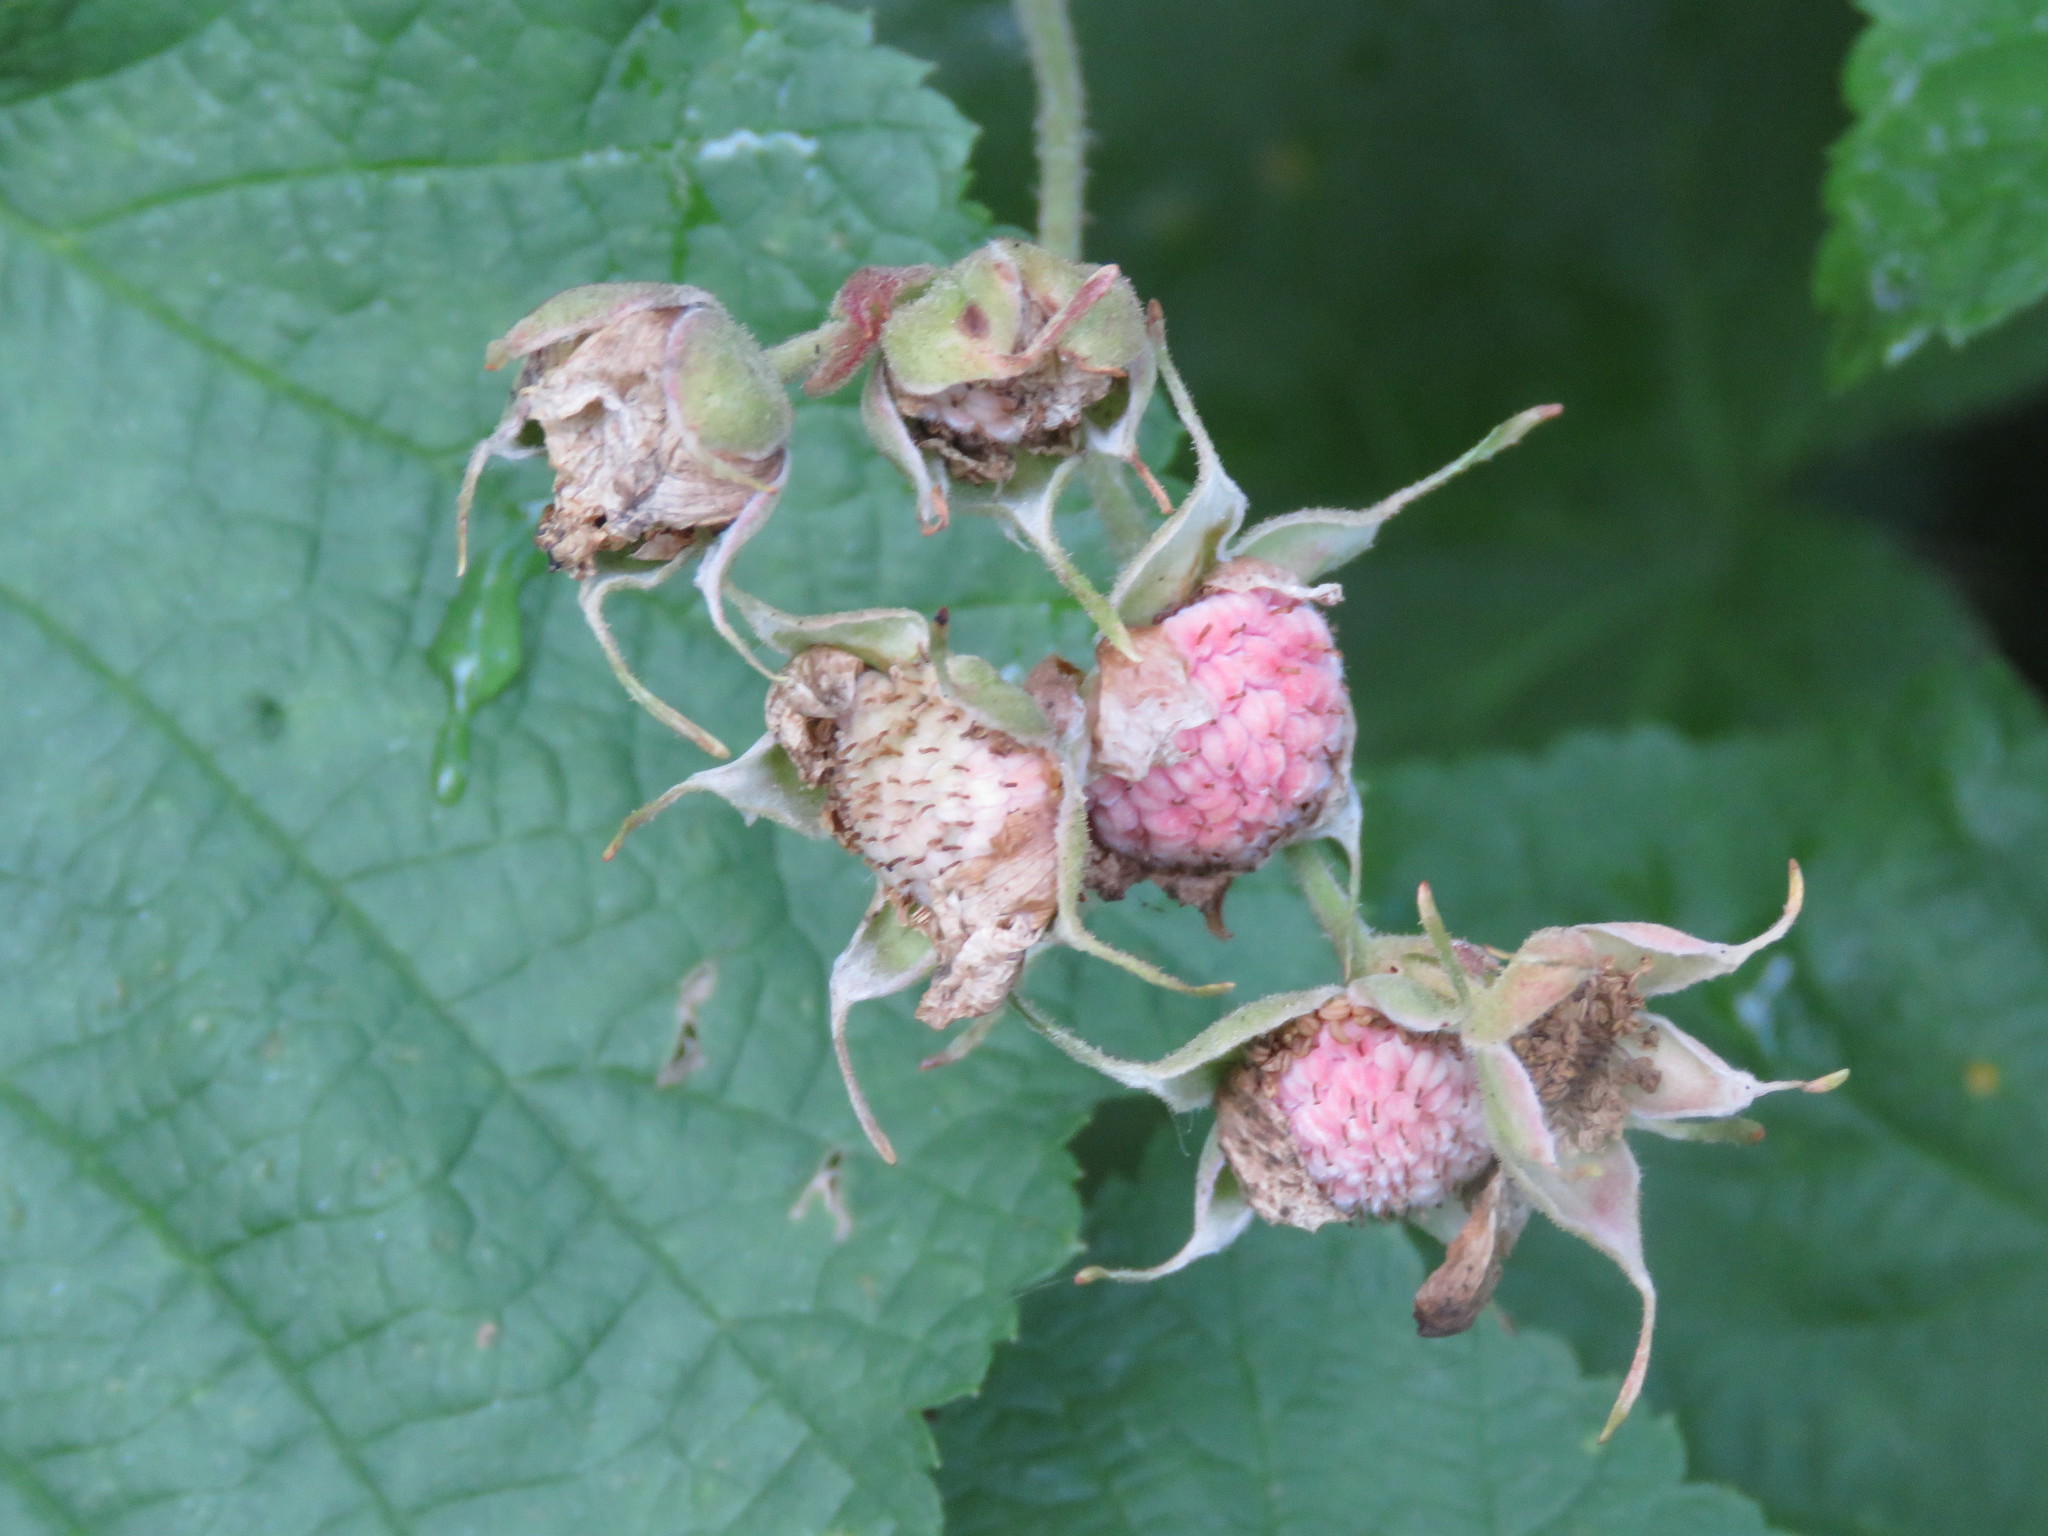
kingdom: Plantae
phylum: Tracheophyta
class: Magnoliopsida
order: Rosales
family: Rosaceae
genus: Rubus
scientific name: Rubus parviflorus
